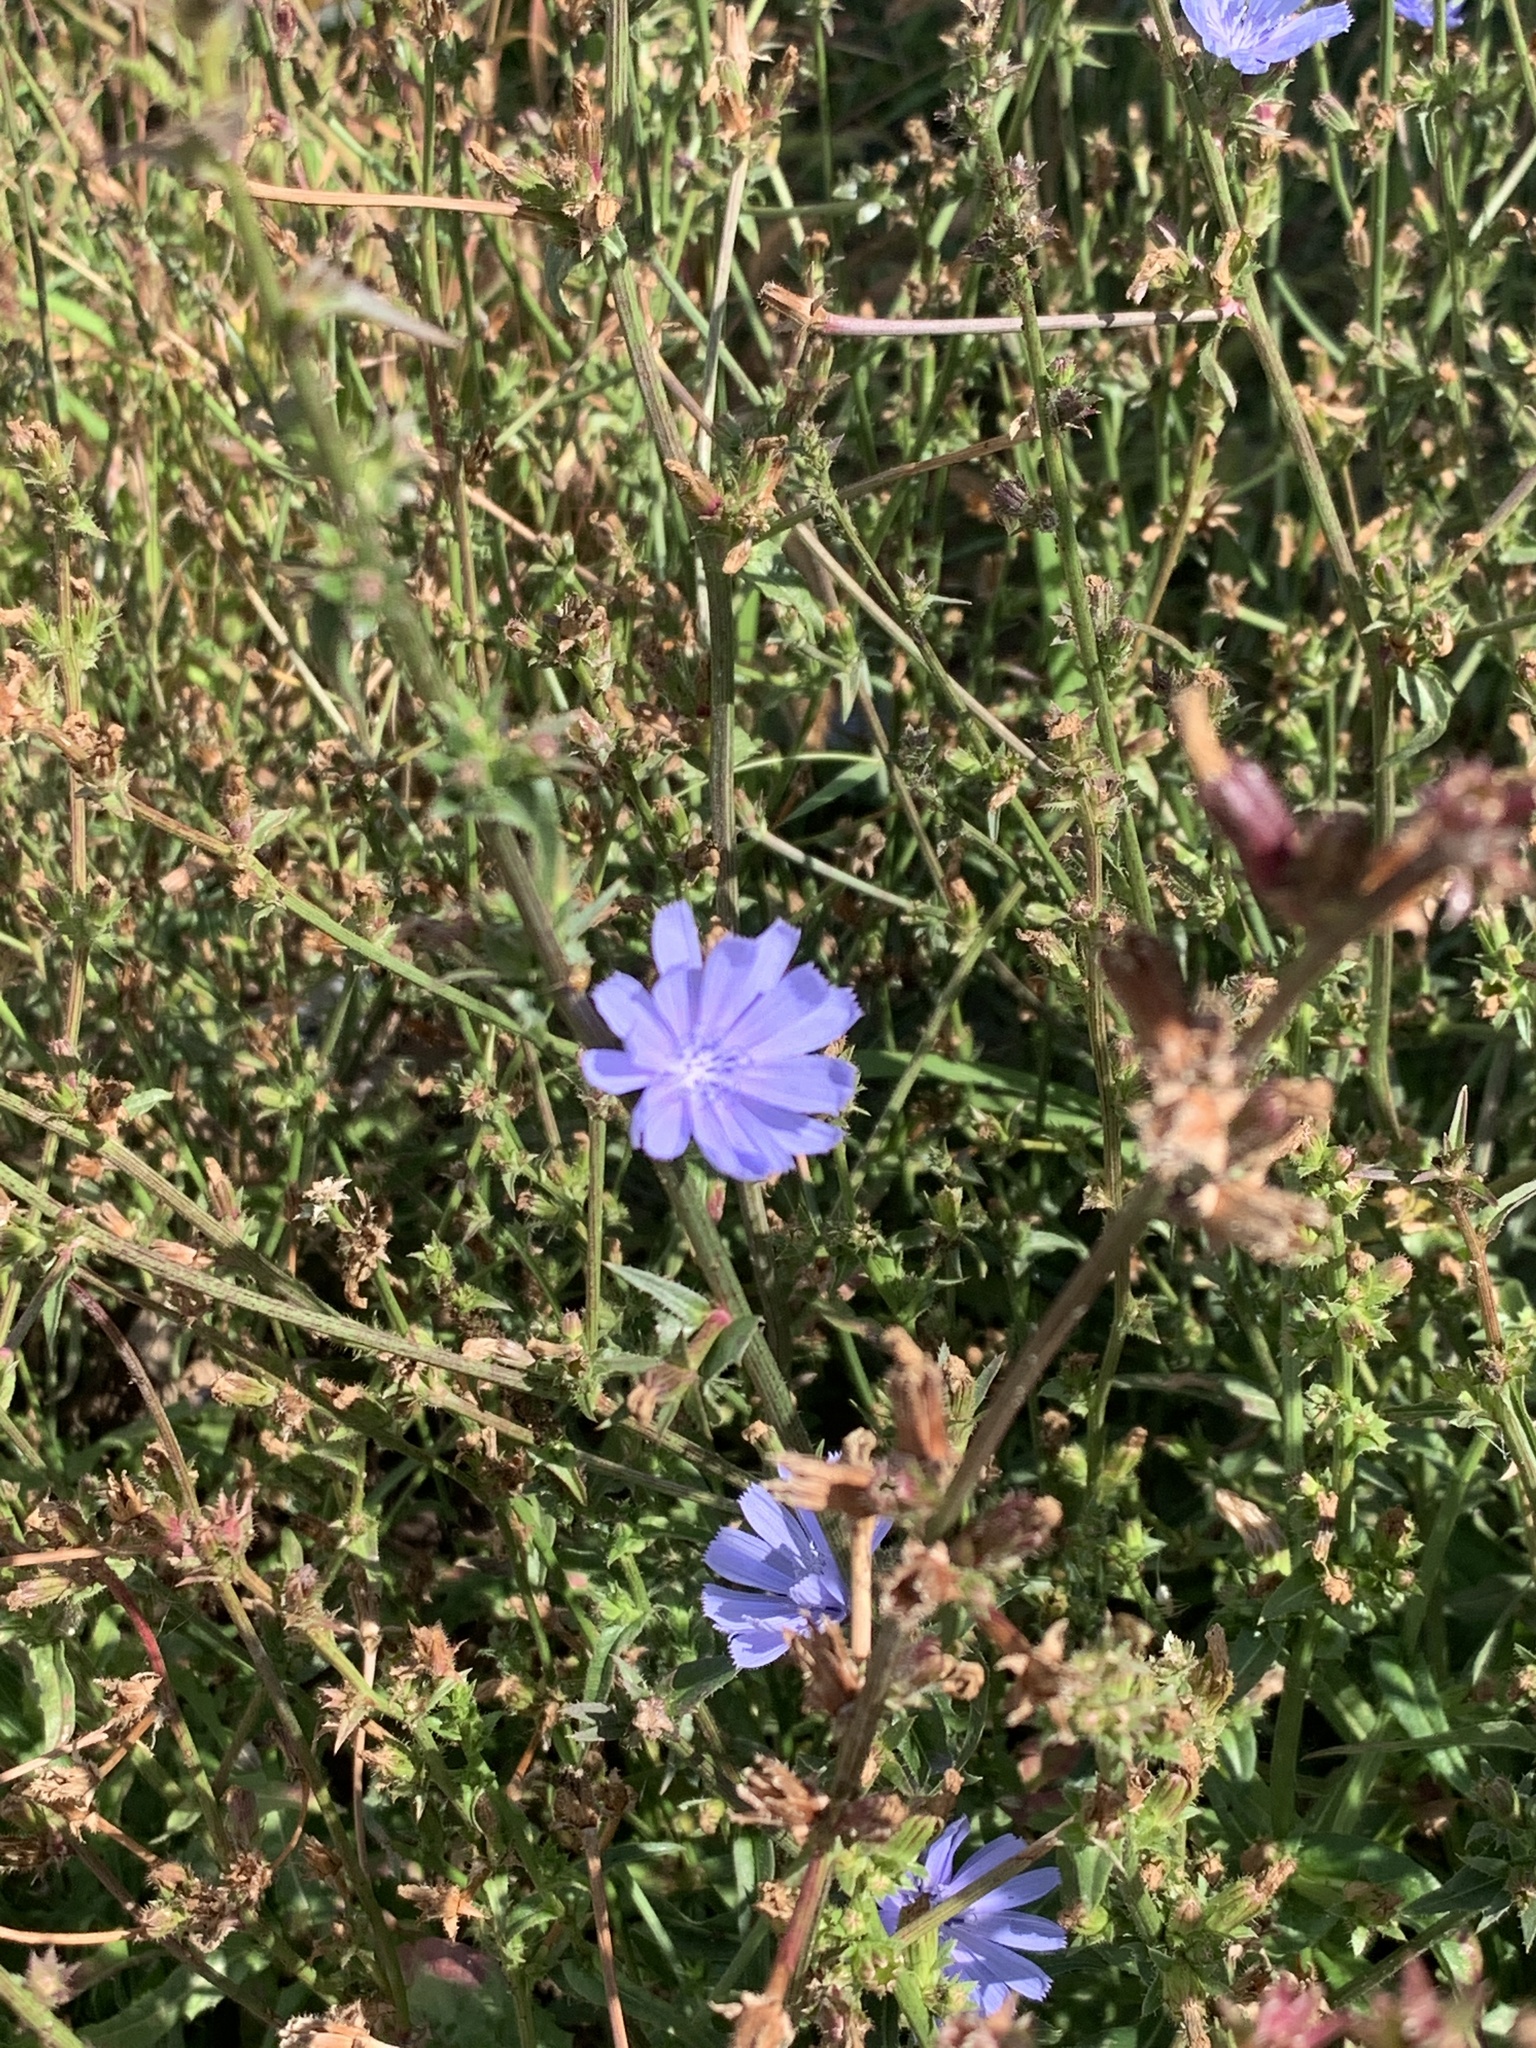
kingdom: Plantae
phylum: Tracheophyta
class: Magnoliopsida
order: Asterales
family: Asteraceae
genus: Cichorium
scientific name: Cichorium intybus
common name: Chicory
